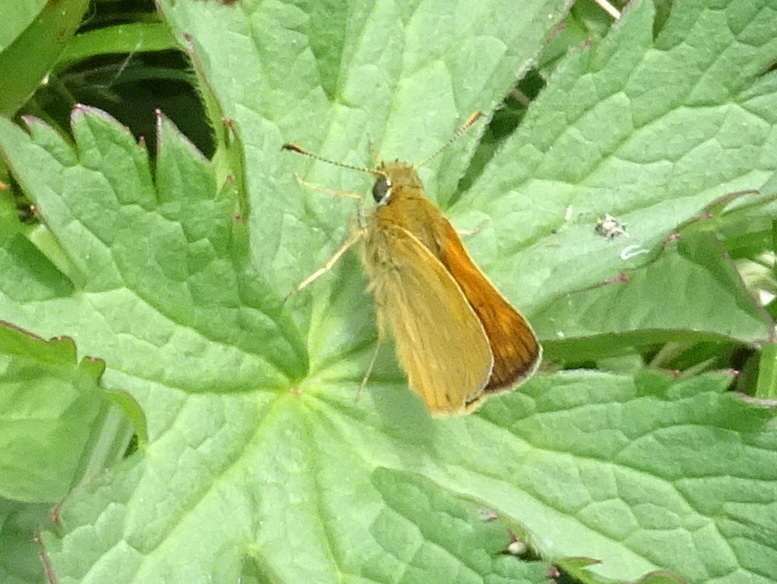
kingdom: Animalia
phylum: Arthropoda
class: Insecta
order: Lepidoptera
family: Hesperiidae
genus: Ochlodes
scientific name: Ochlodes venata
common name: Large skipper
